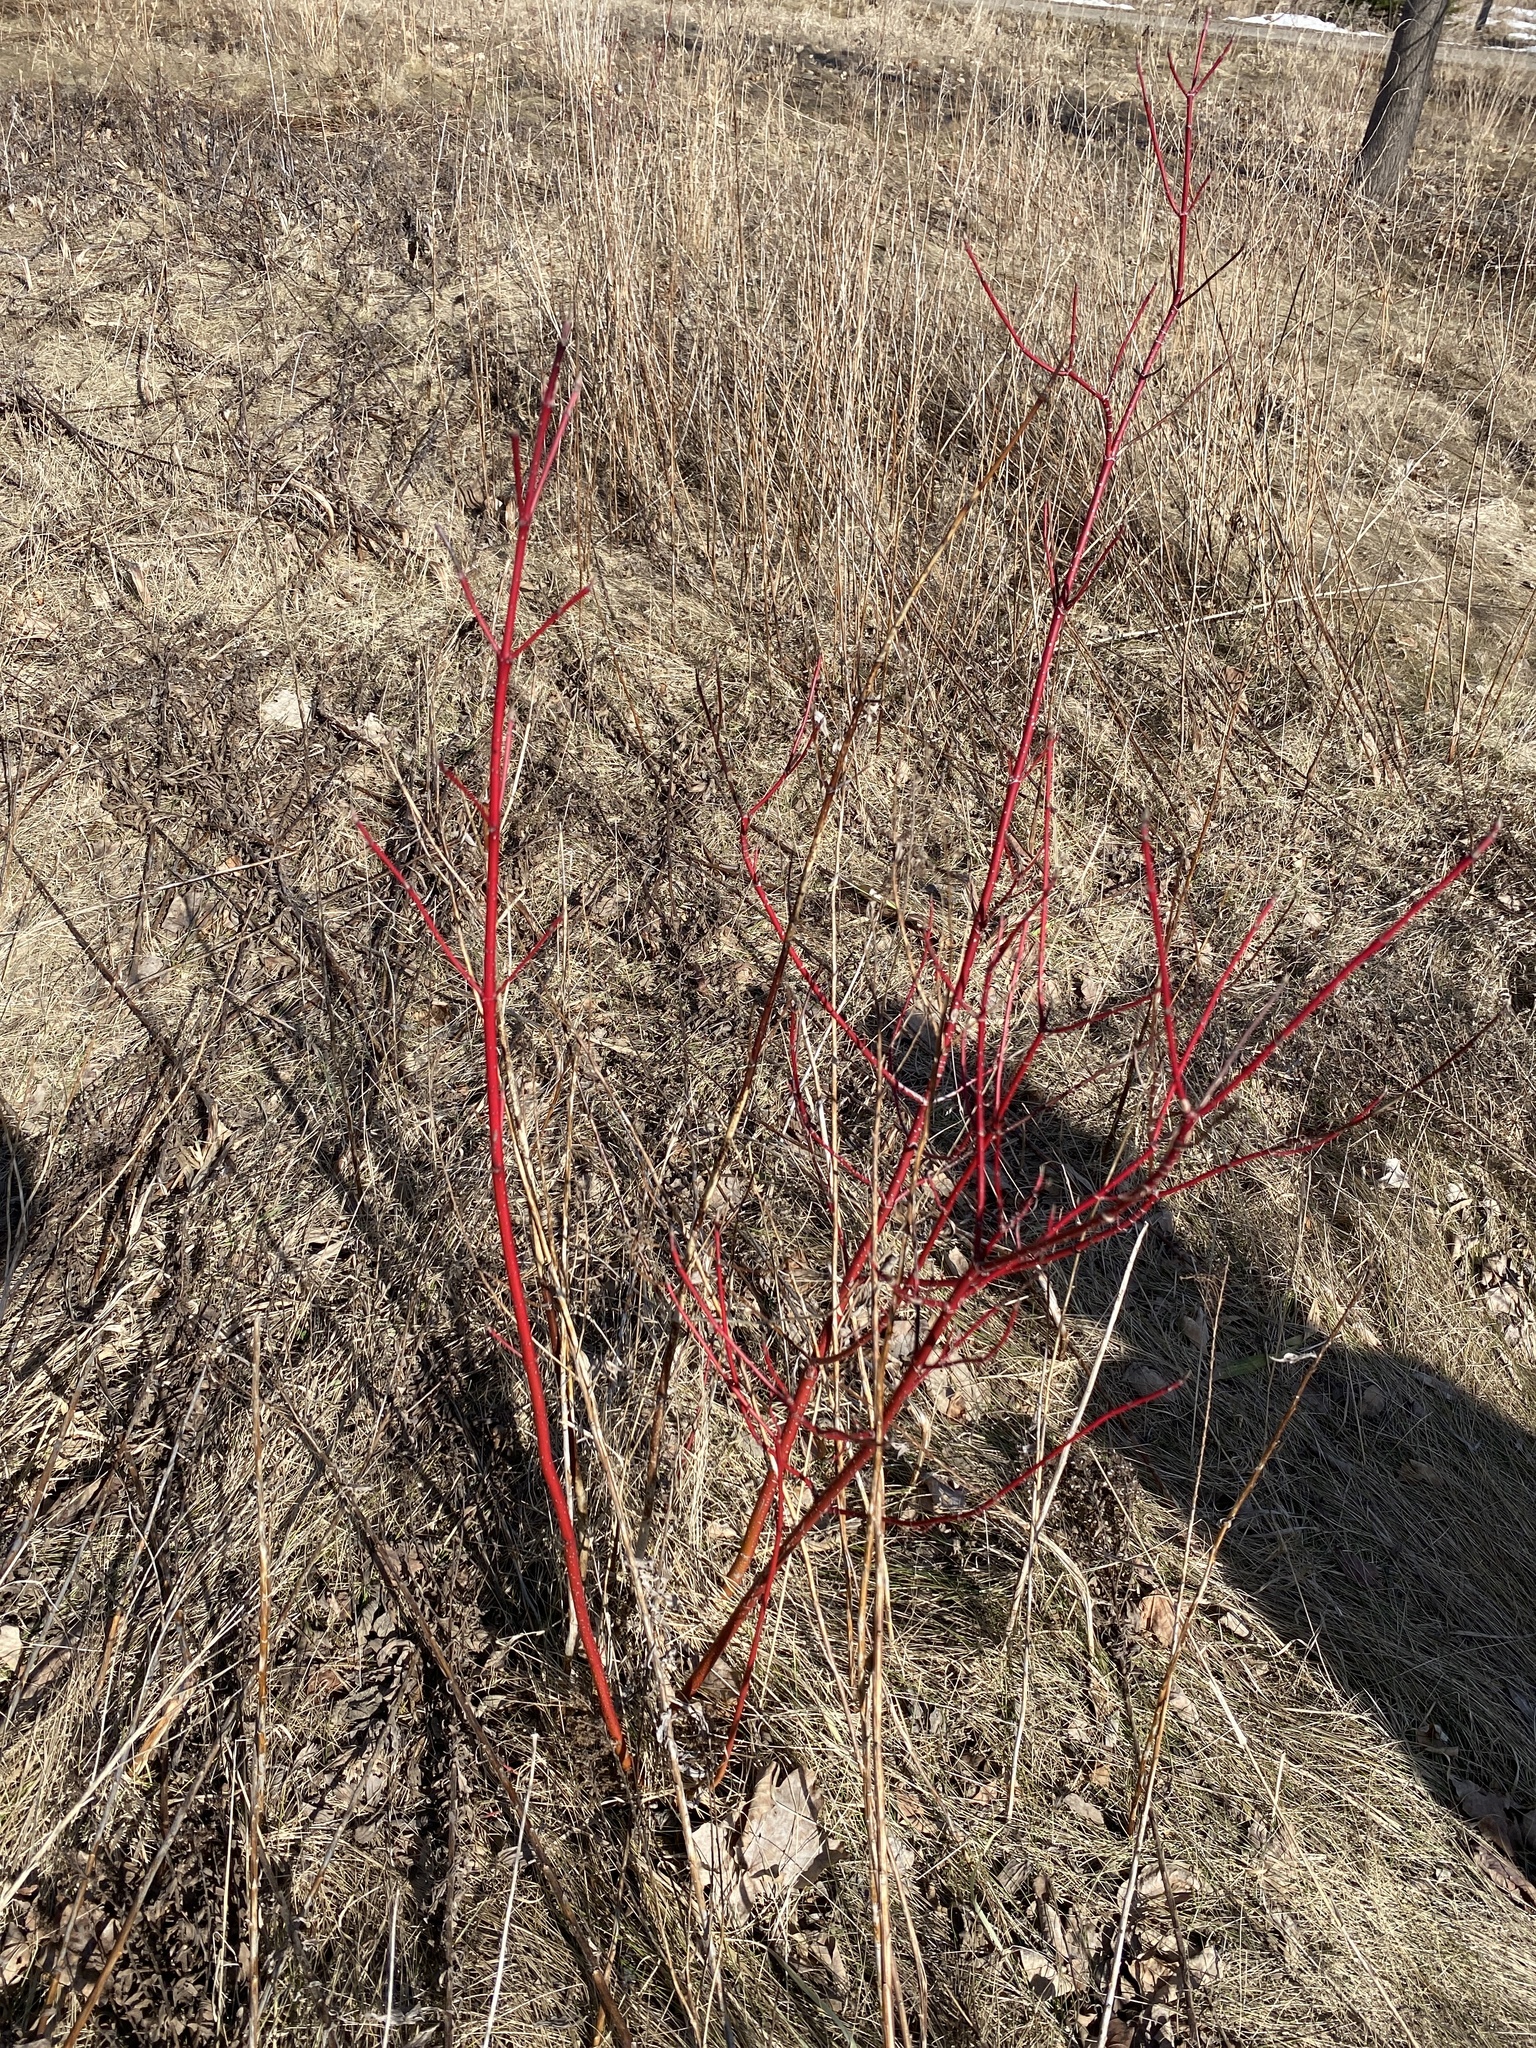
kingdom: Plantae
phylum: Tracheophyta
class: Magnoliopsida
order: Cornales
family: Cornaceae
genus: Cornus
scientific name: Cornus sericea
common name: Red-osier dogwood
